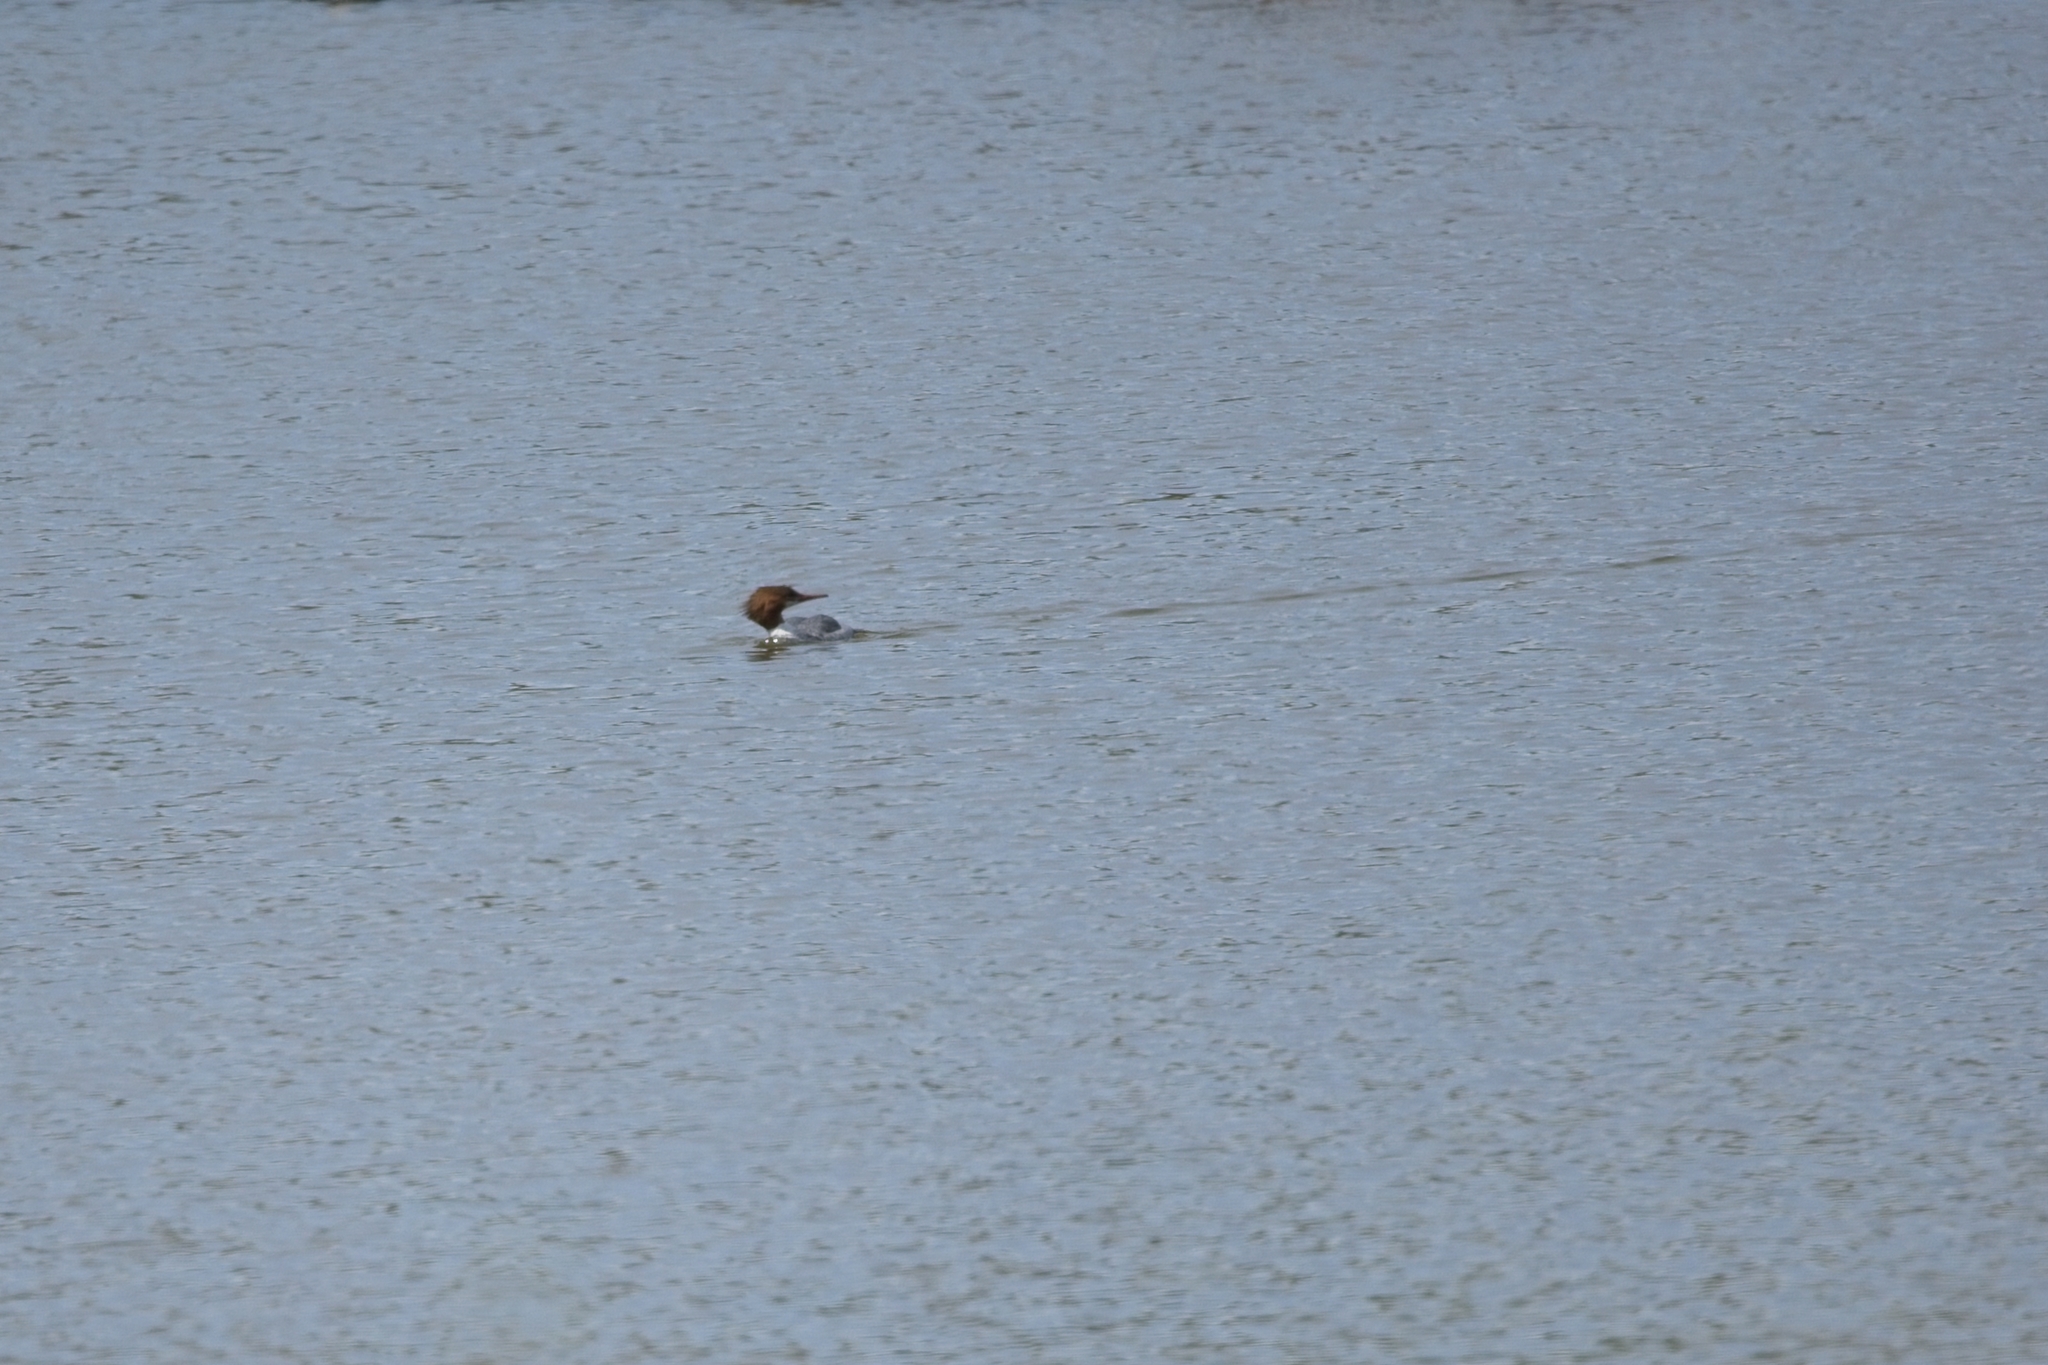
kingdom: Animalia
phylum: Chordata
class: Aves
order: Anseriformes
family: Anatidae
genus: Mergus
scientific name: Mergus merganser
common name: Common merganser
